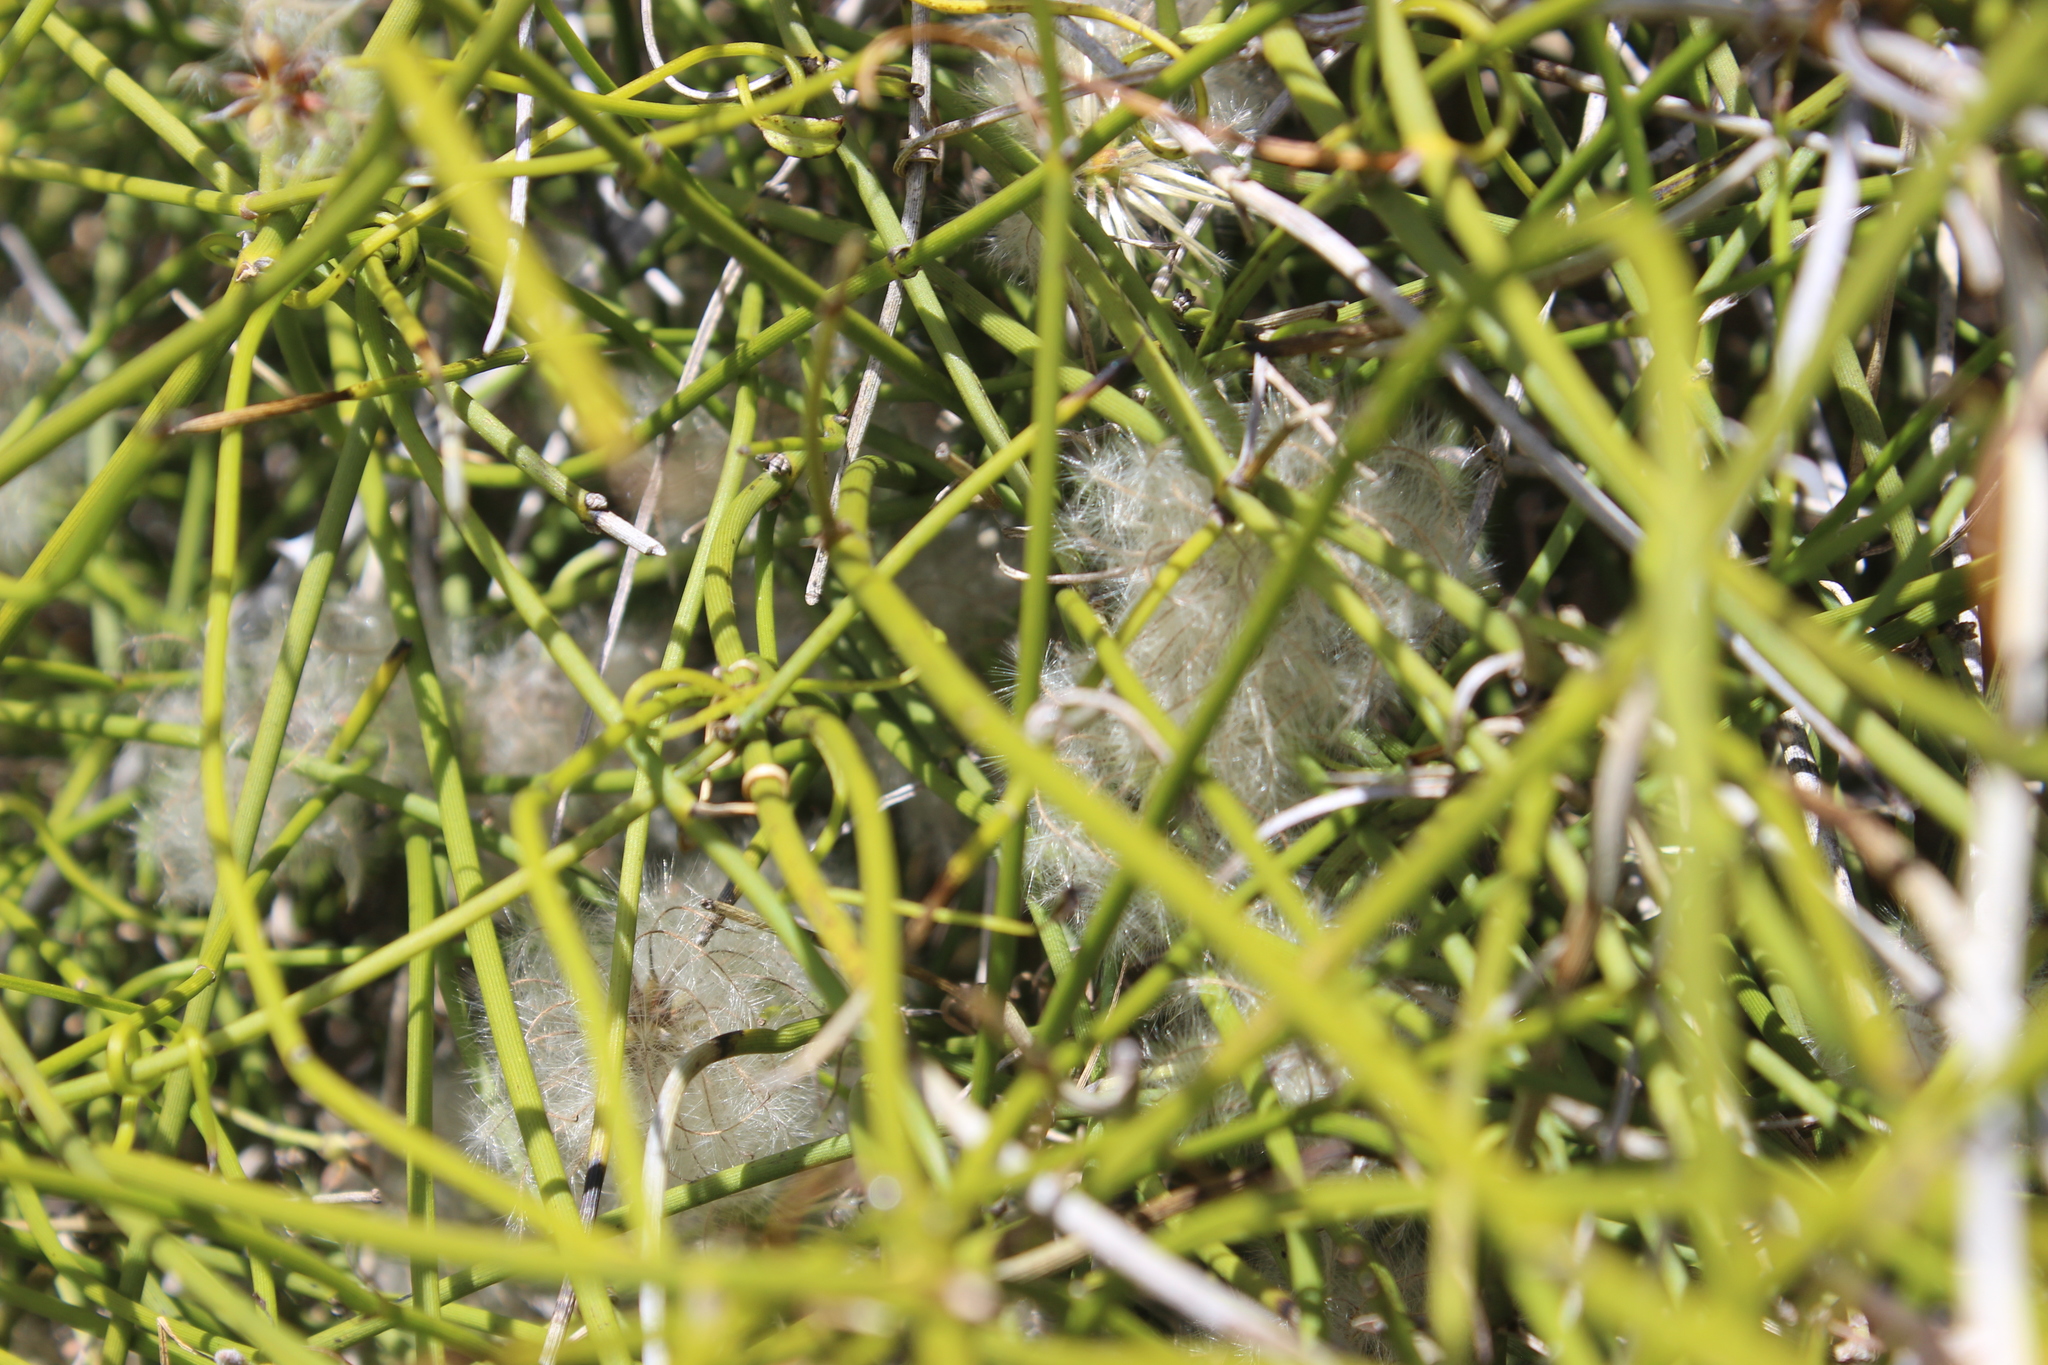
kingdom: Plantae
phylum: Tracheophyta
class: Magnoliopsida
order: Ranunculales
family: Ranunculaceae
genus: Clematis
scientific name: Clematis afoliata
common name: Rush-stem clematis
